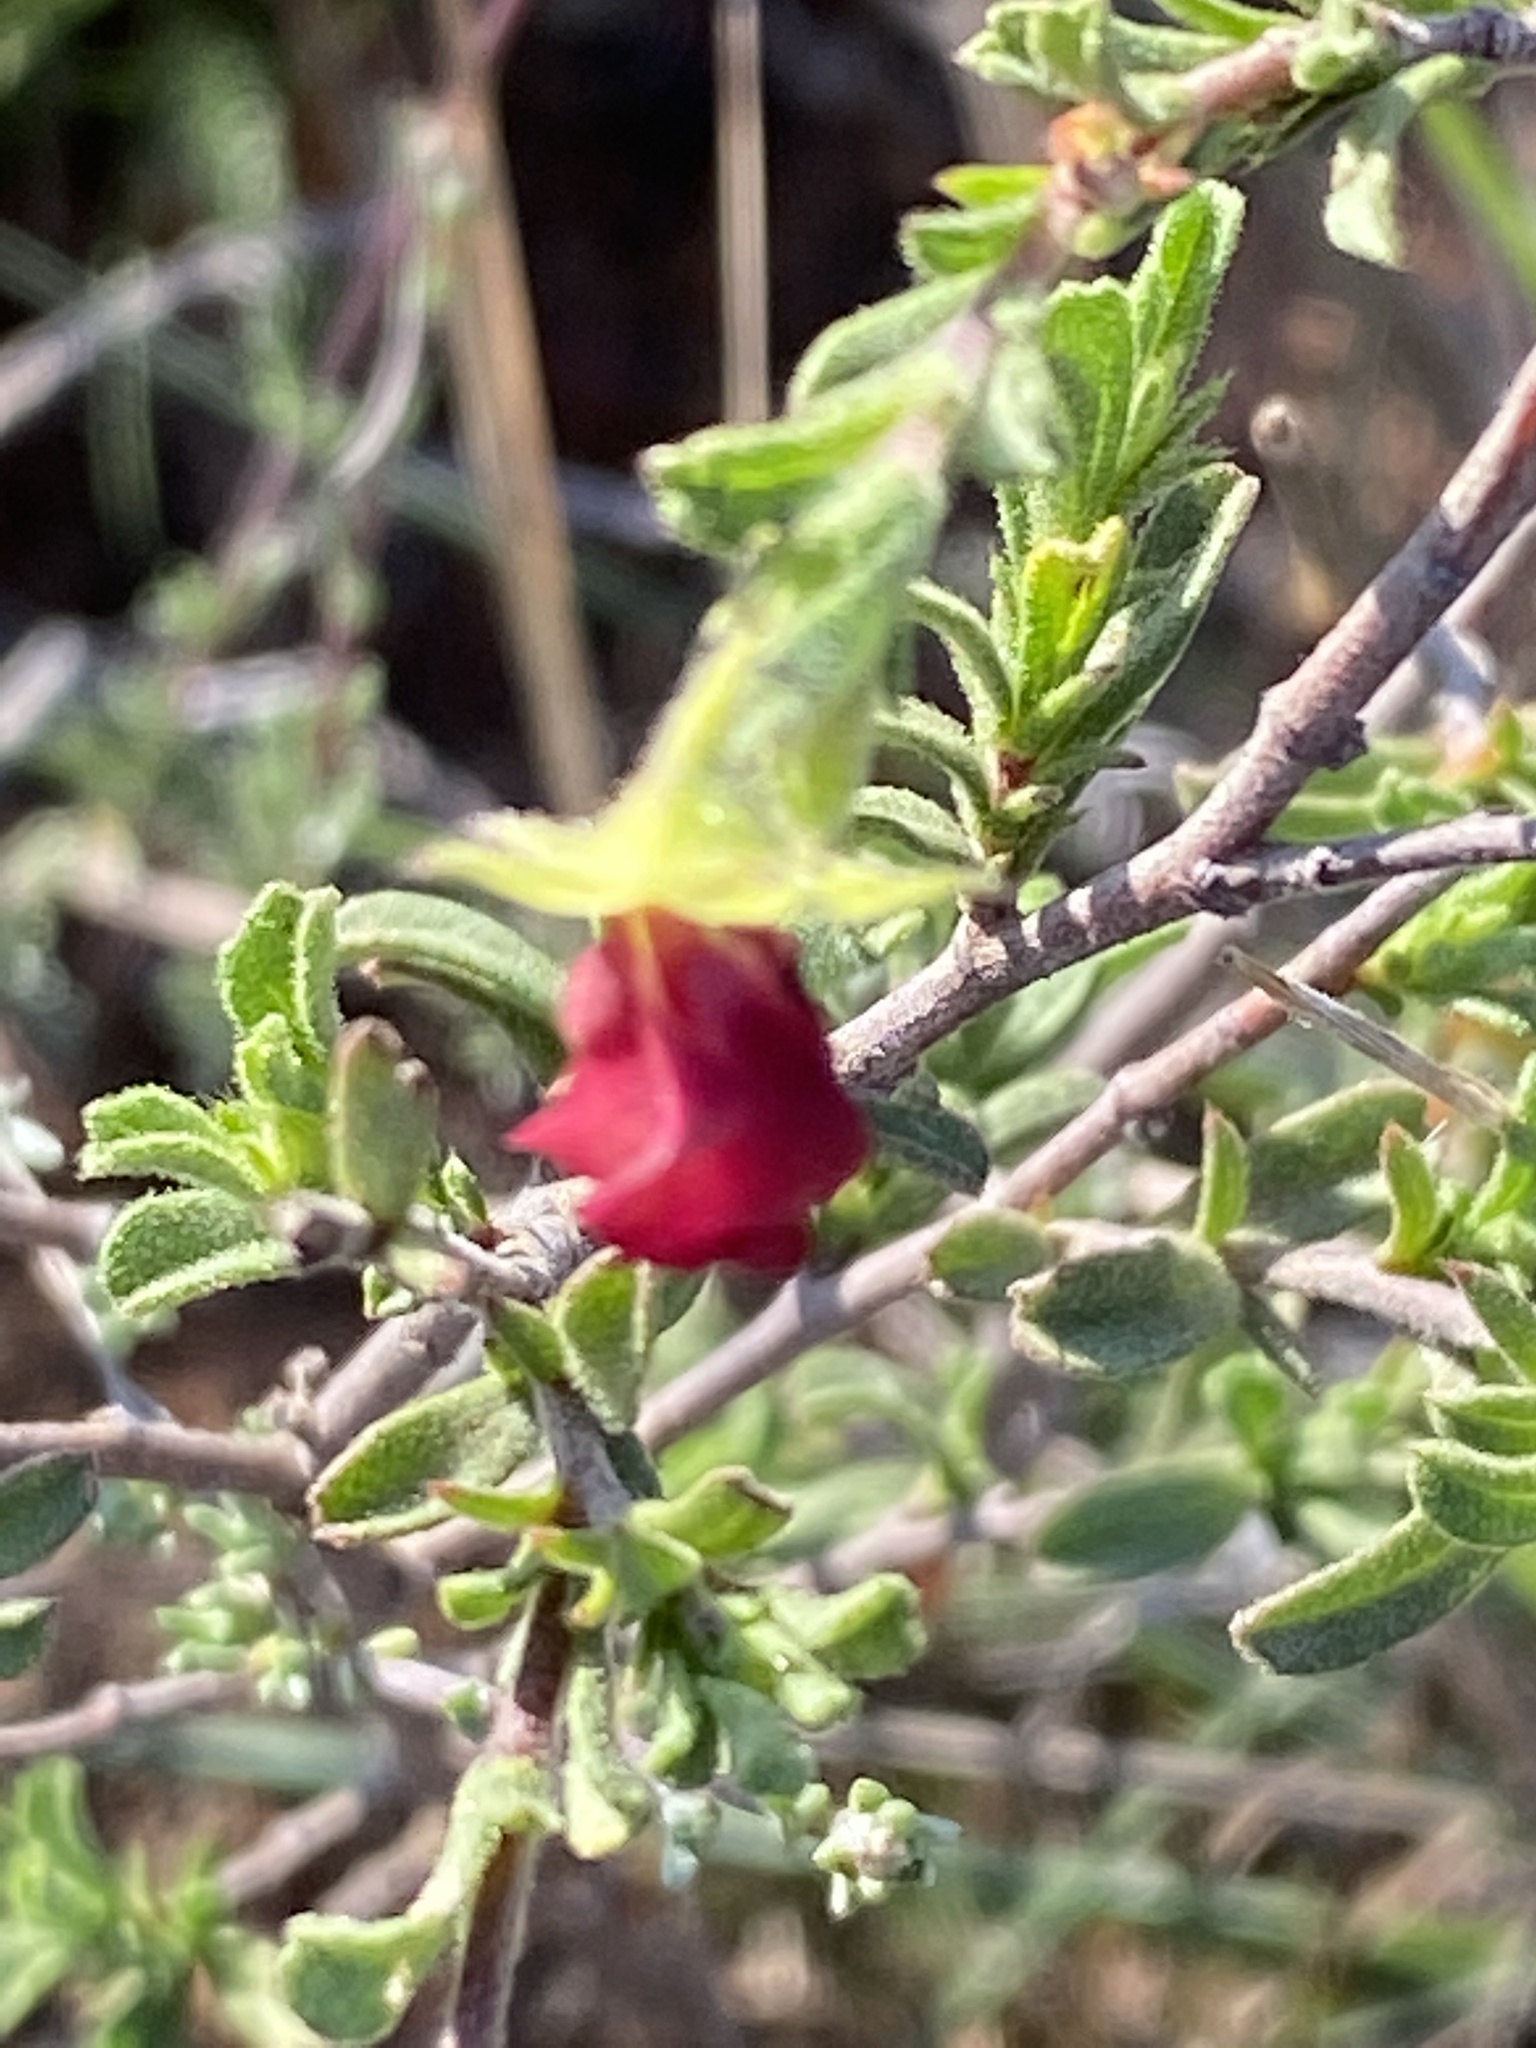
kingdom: Plantae
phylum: Tracheophyta
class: Magnoliopsida
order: Malvales
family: Malvaceae
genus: Hermannia
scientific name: Hermannia flammula
